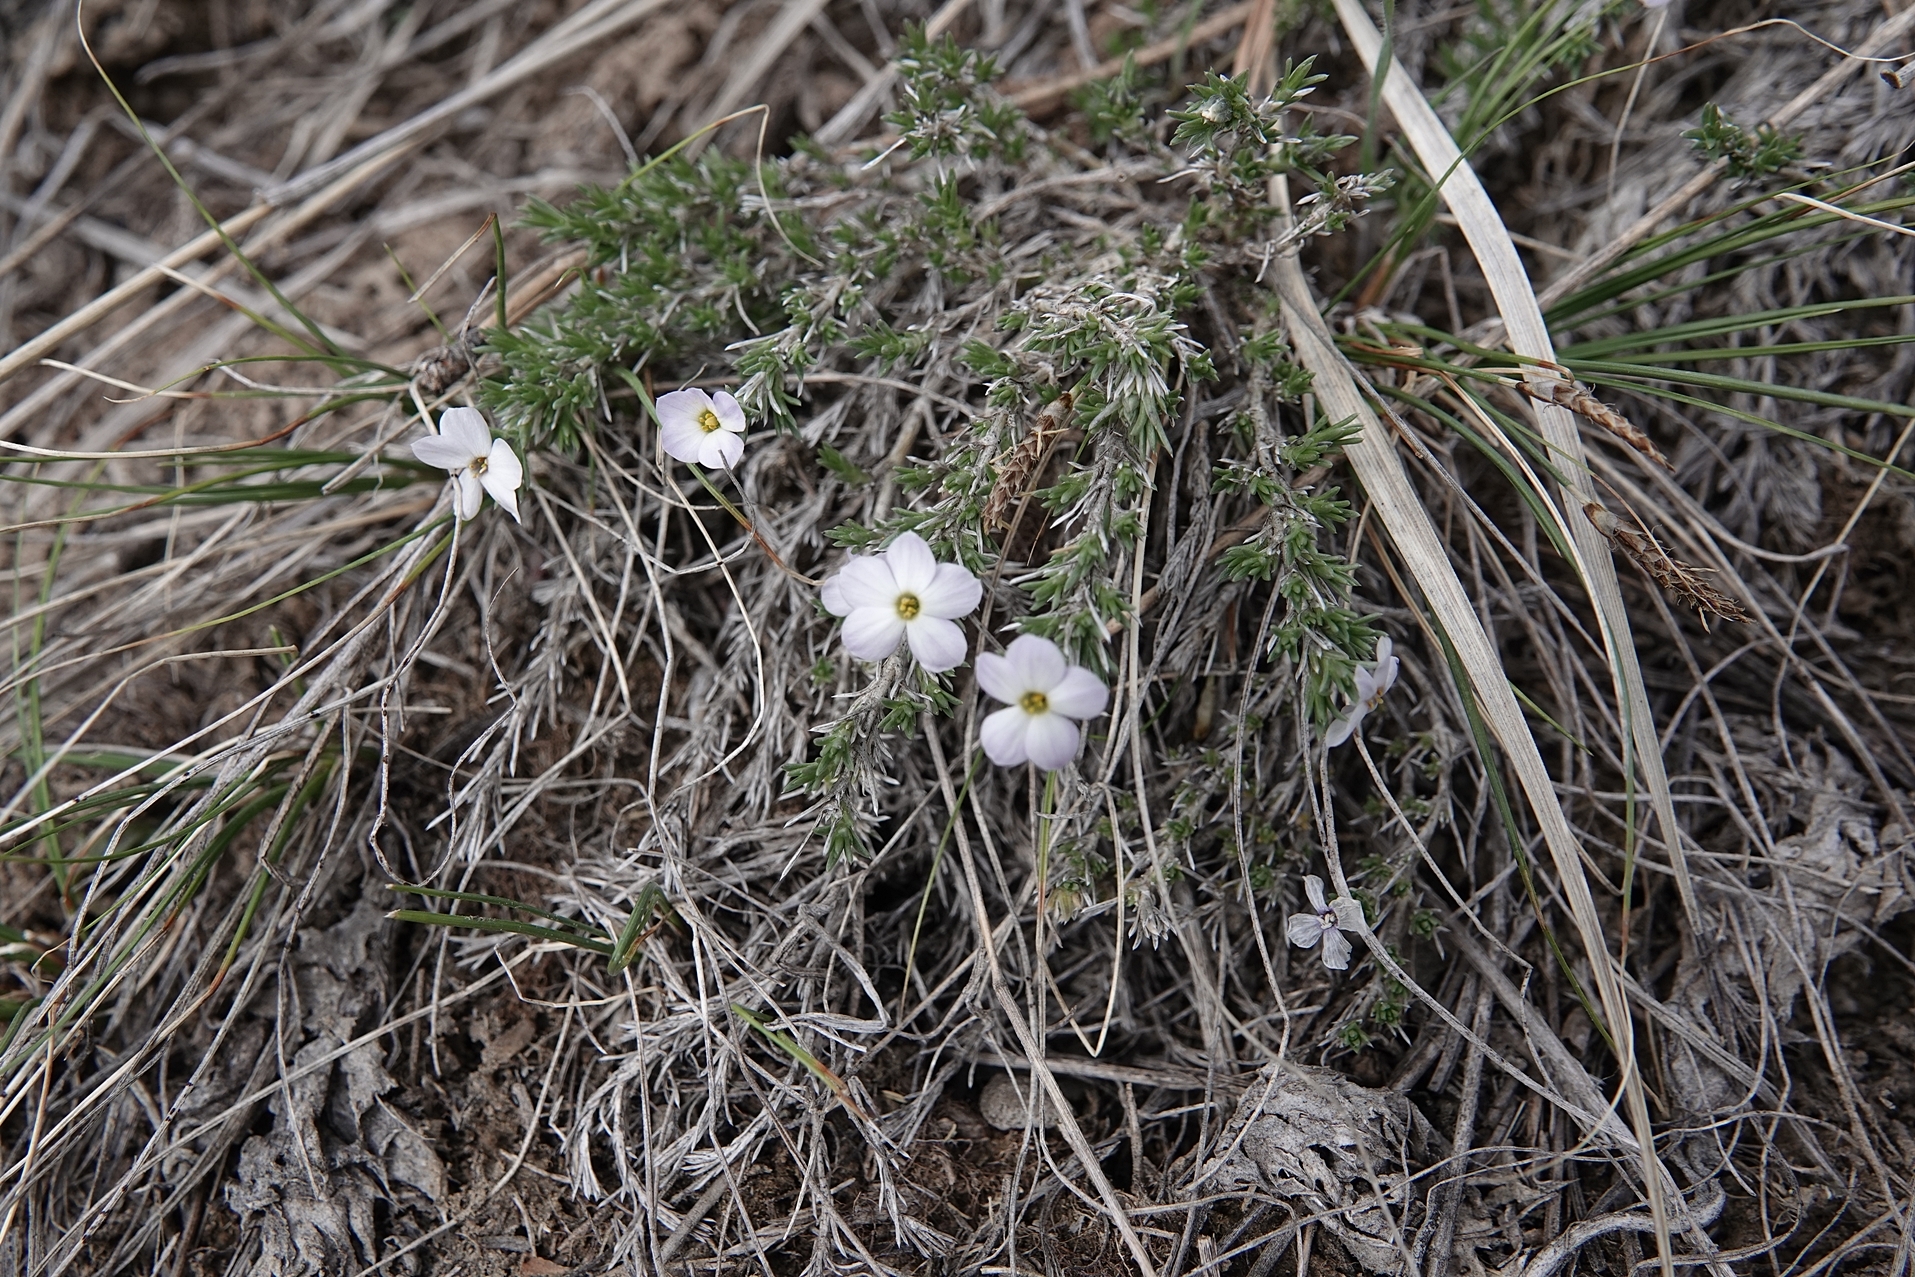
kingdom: Plantae
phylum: Tracheophyta
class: Magnoliopsida
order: Ericales
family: Polemoniaceae
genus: Phlox
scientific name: Phlox hoodii
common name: Moss phlox
